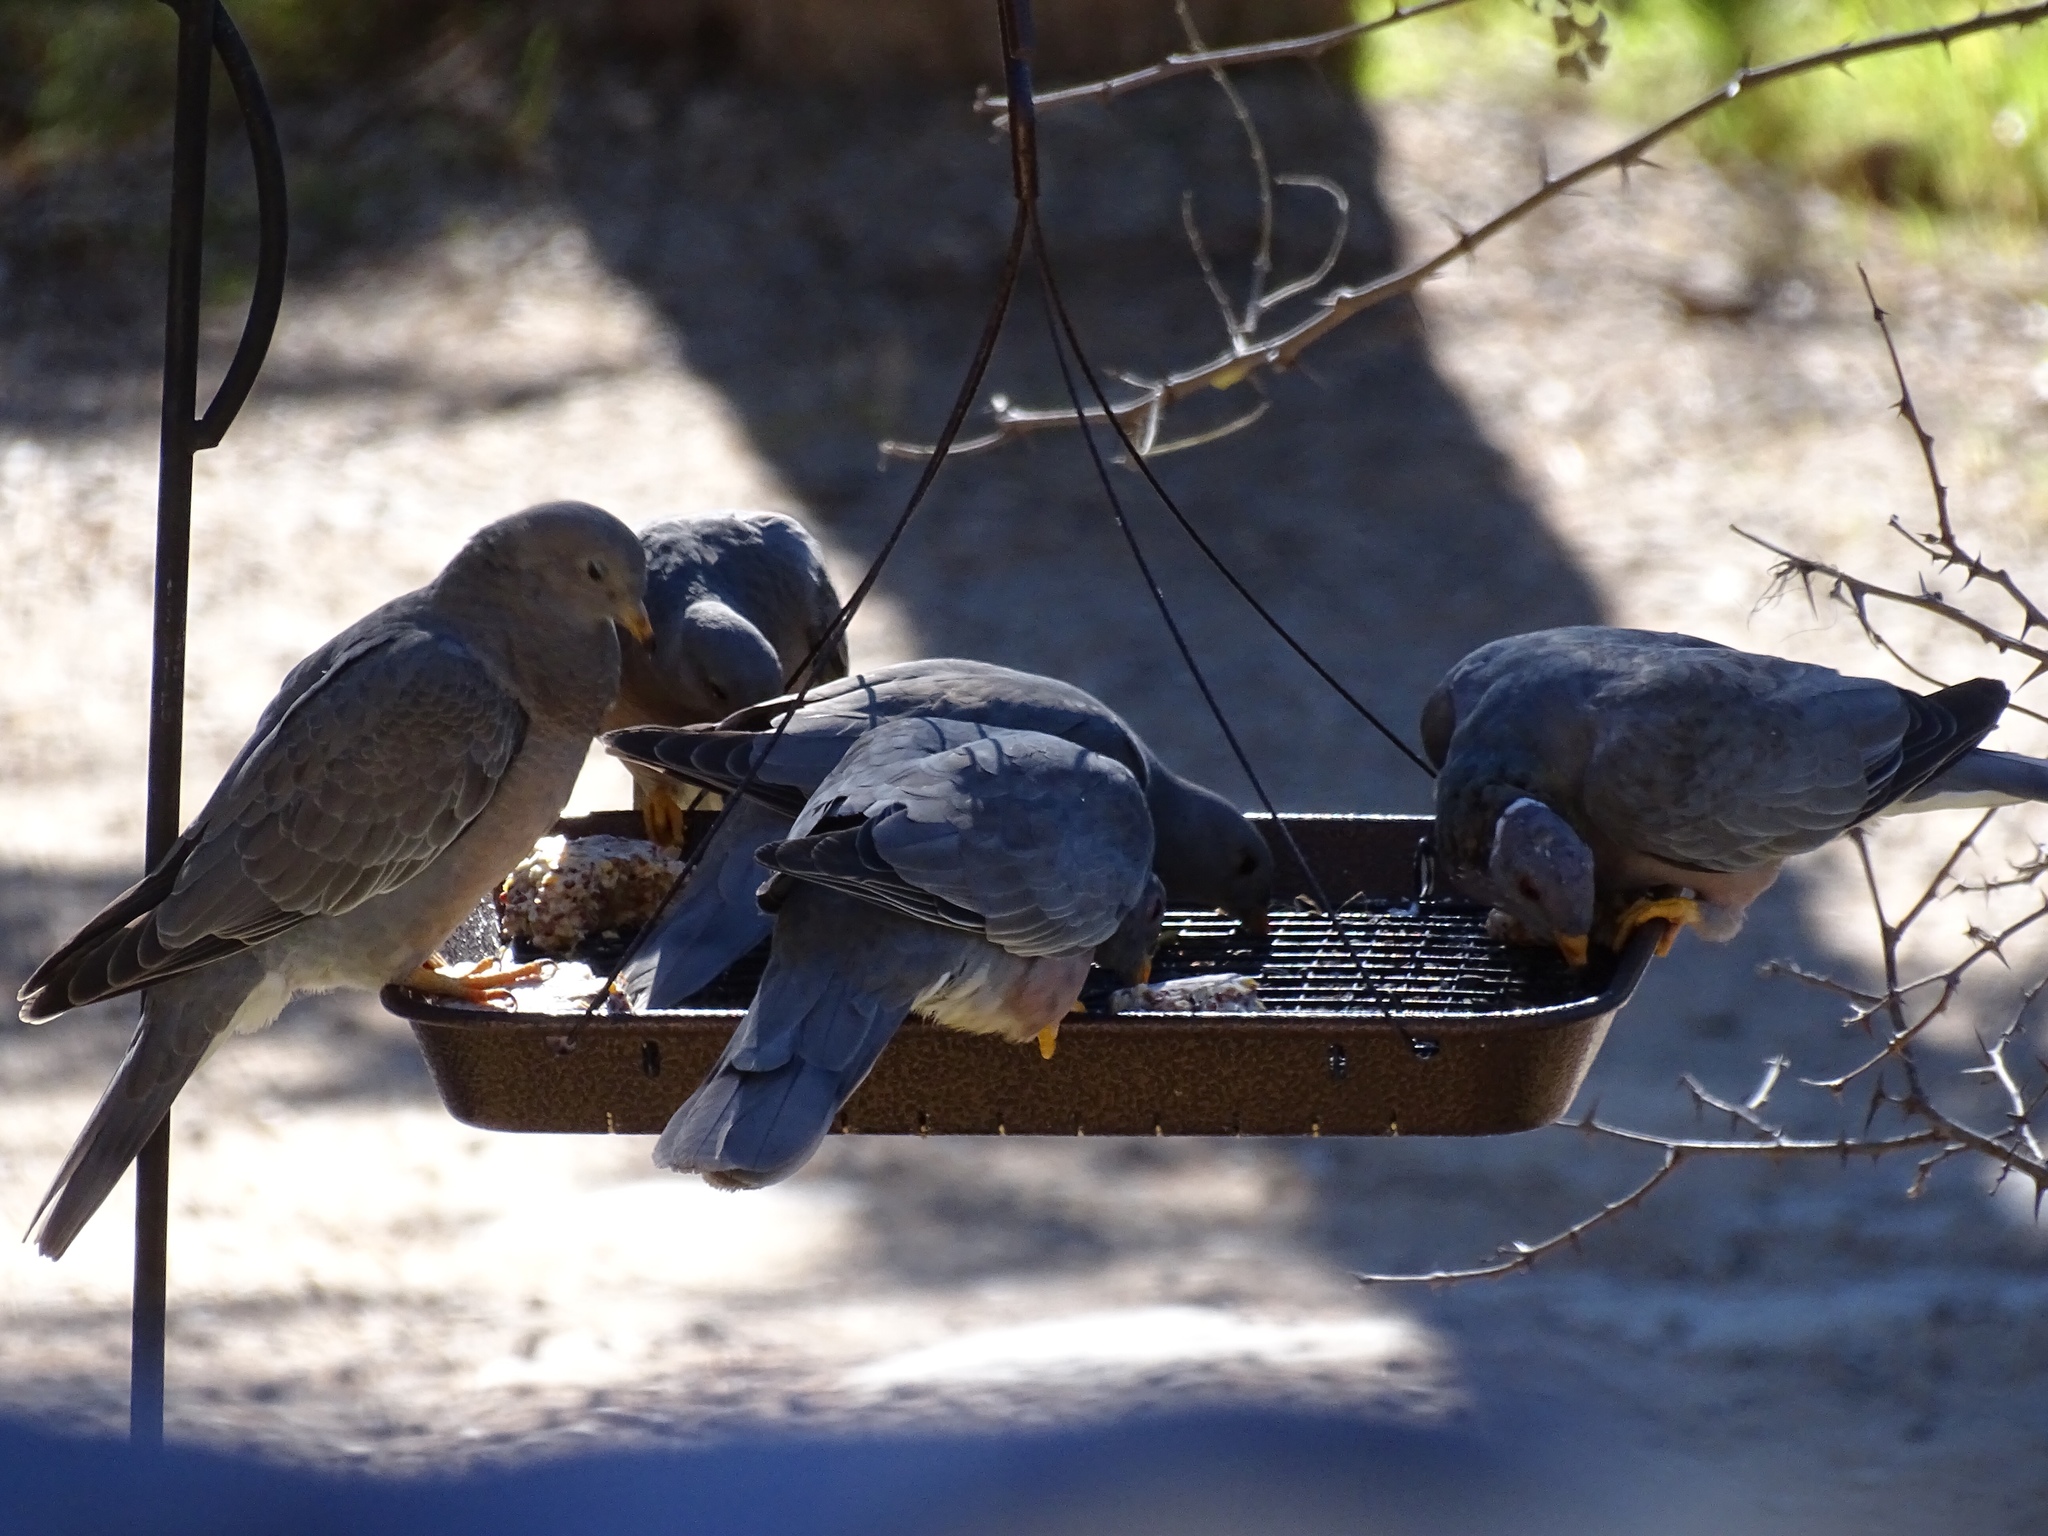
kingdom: Animalia
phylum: Chordata
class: Aves
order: Columbiformes
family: Columbidae
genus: Patagioenas
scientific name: Patagioenas fasciata
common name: Band-tailed pigeon
